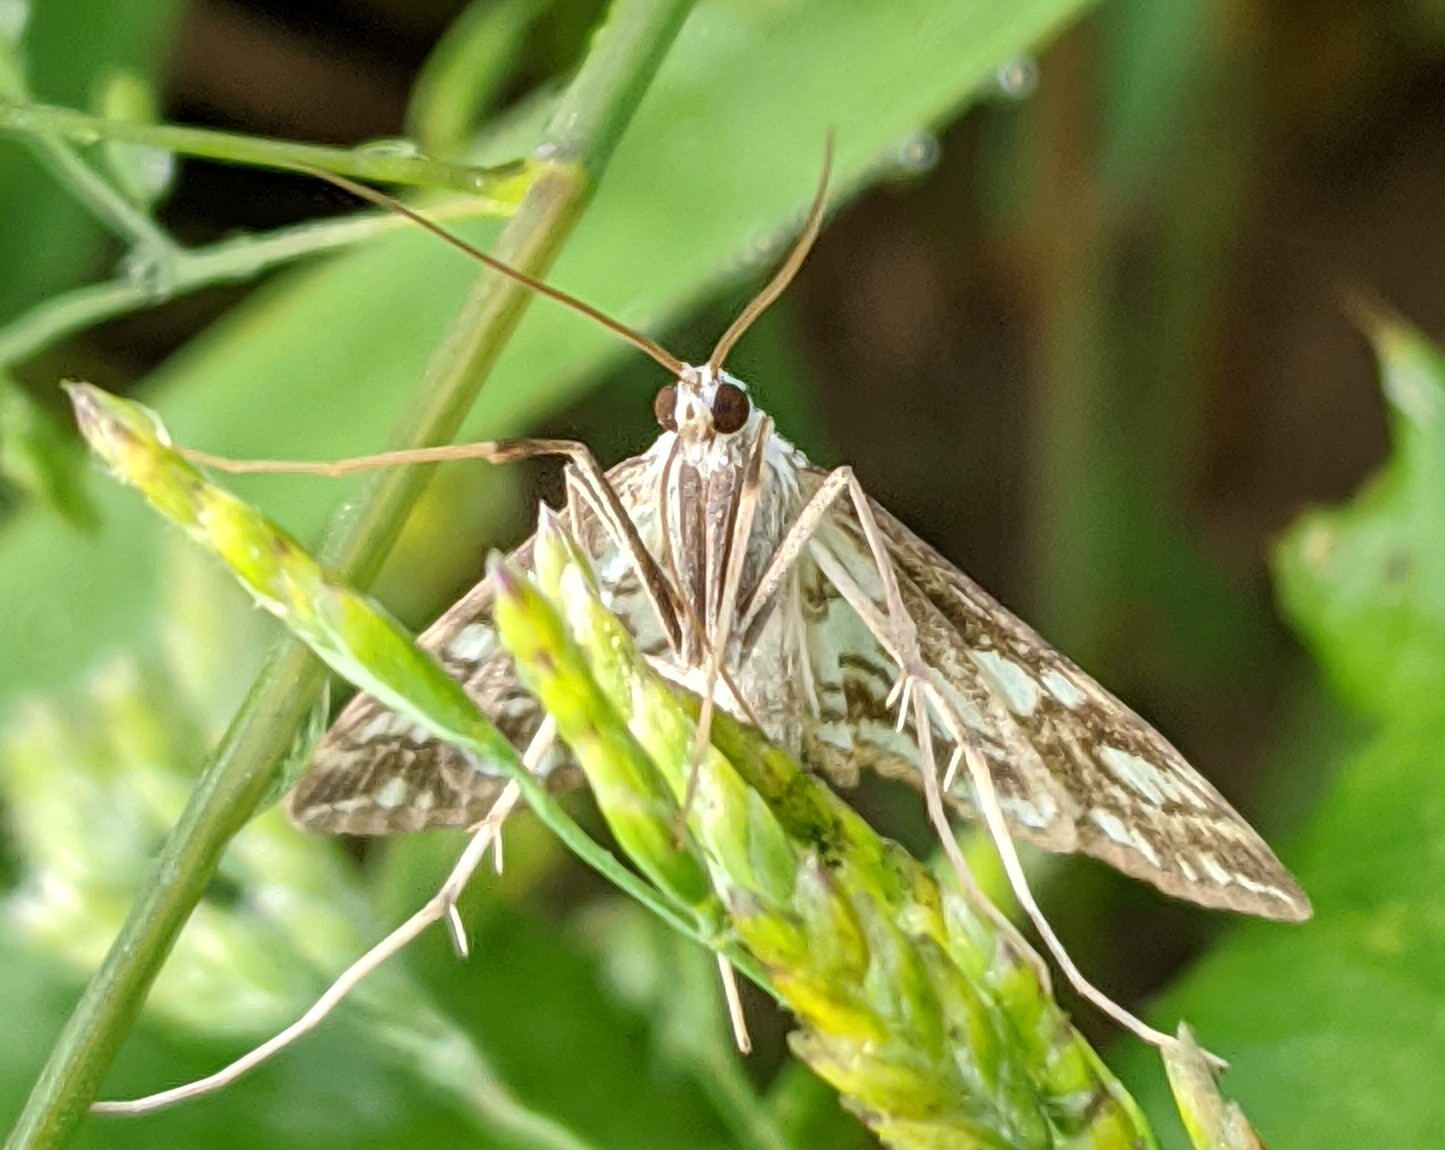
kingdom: Animalia
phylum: Arthropoda
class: Insecta
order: Lepidoptera
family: Crambidae
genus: Elophila
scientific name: Elophila nymphaeata
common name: Brown china-mark
